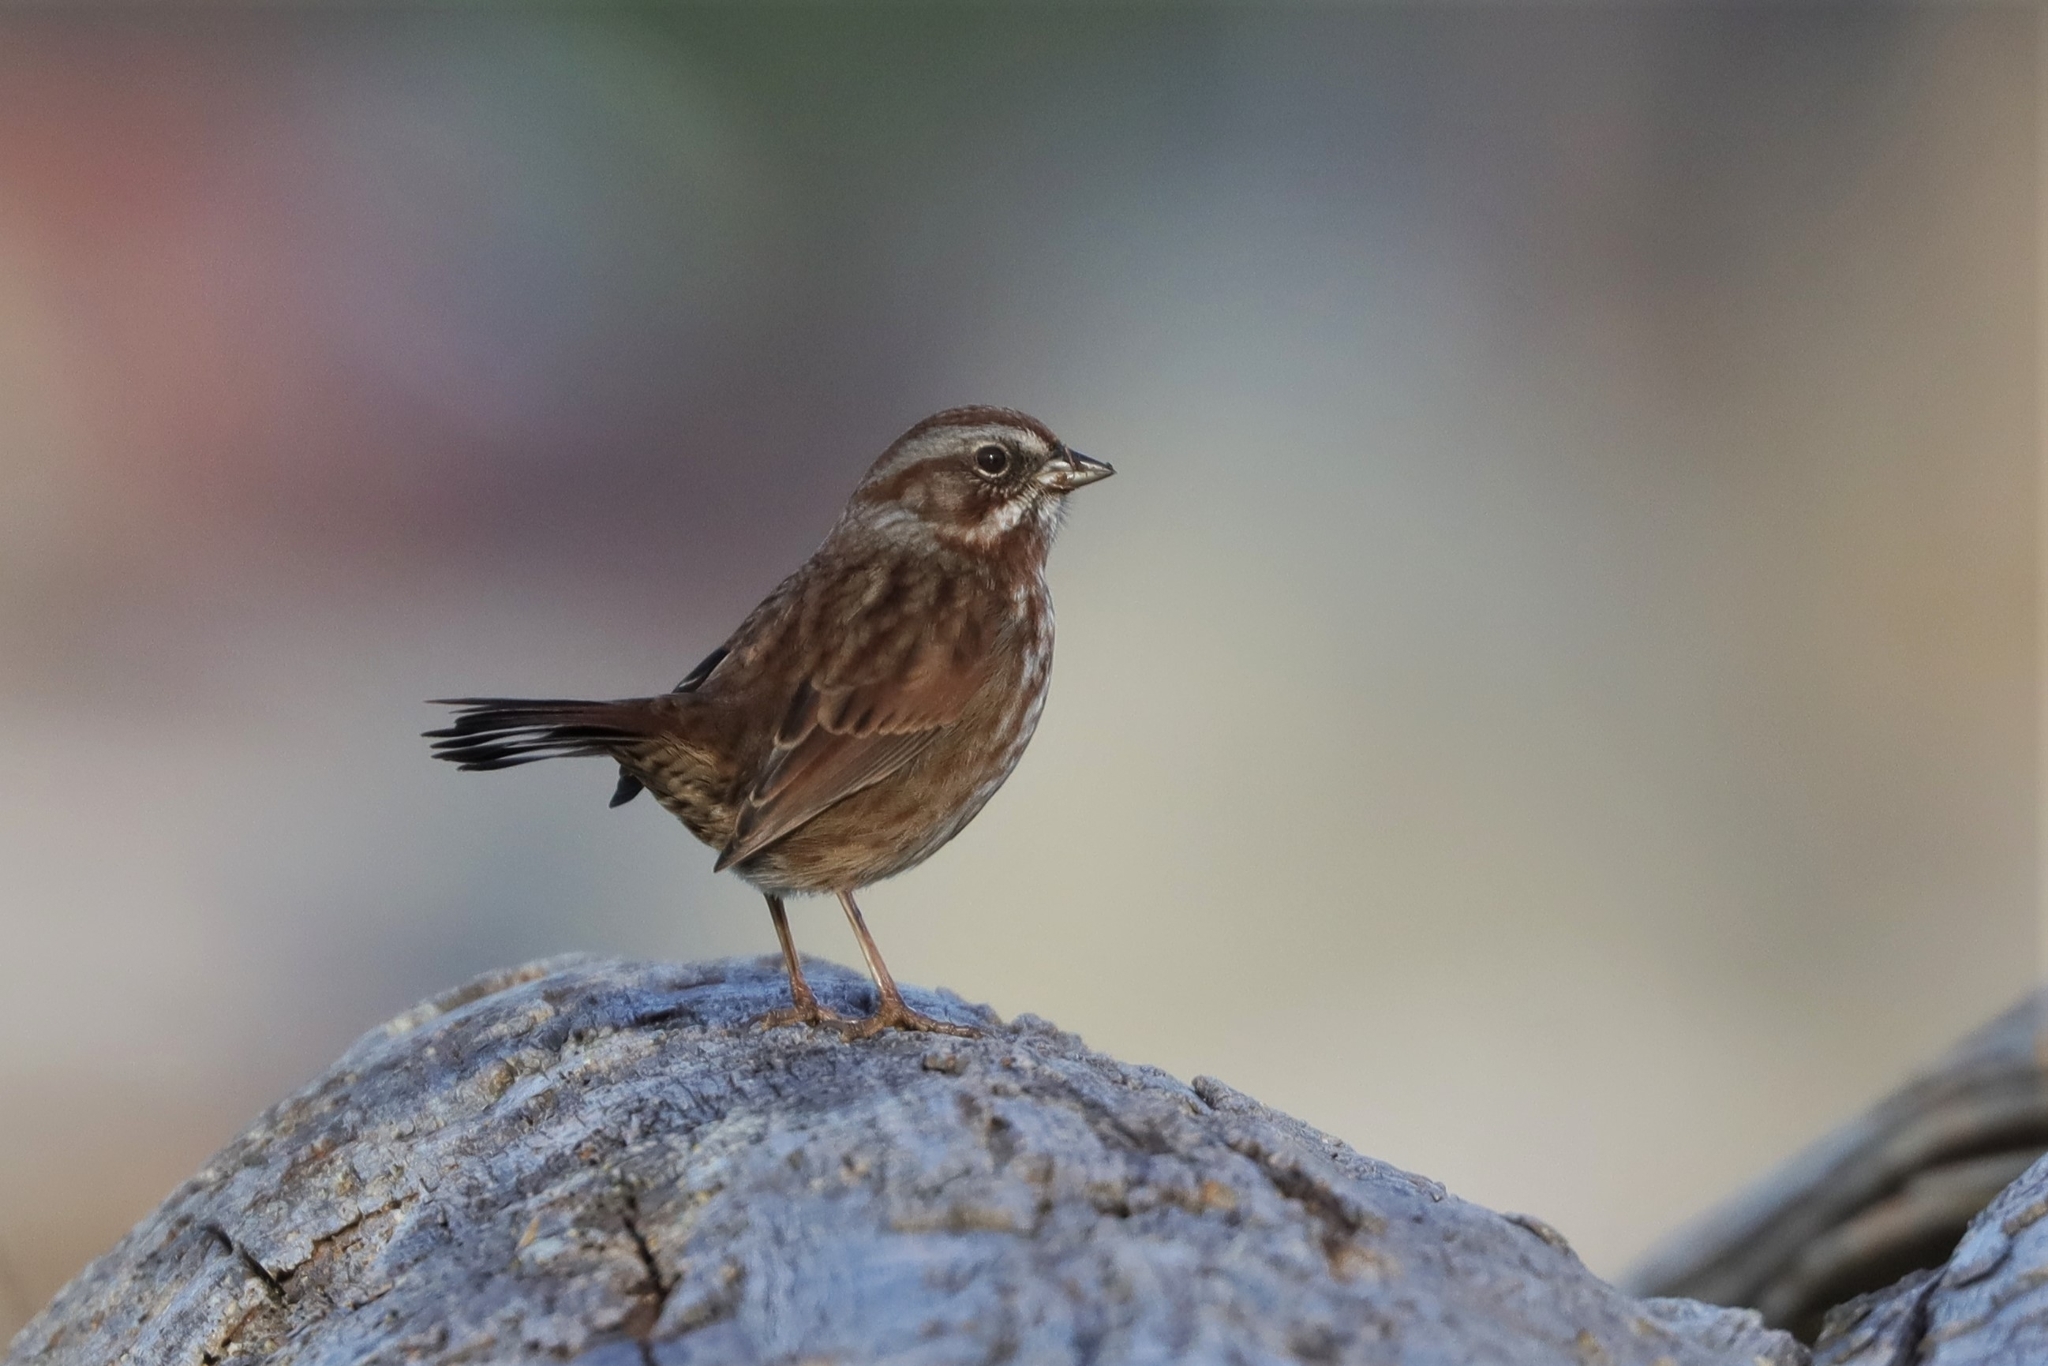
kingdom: Animalia
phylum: Chordata
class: Aves
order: Passeriformes
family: Passerellidae
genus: Melospiza
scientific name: Melospiza melodia
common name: Song sparrow
